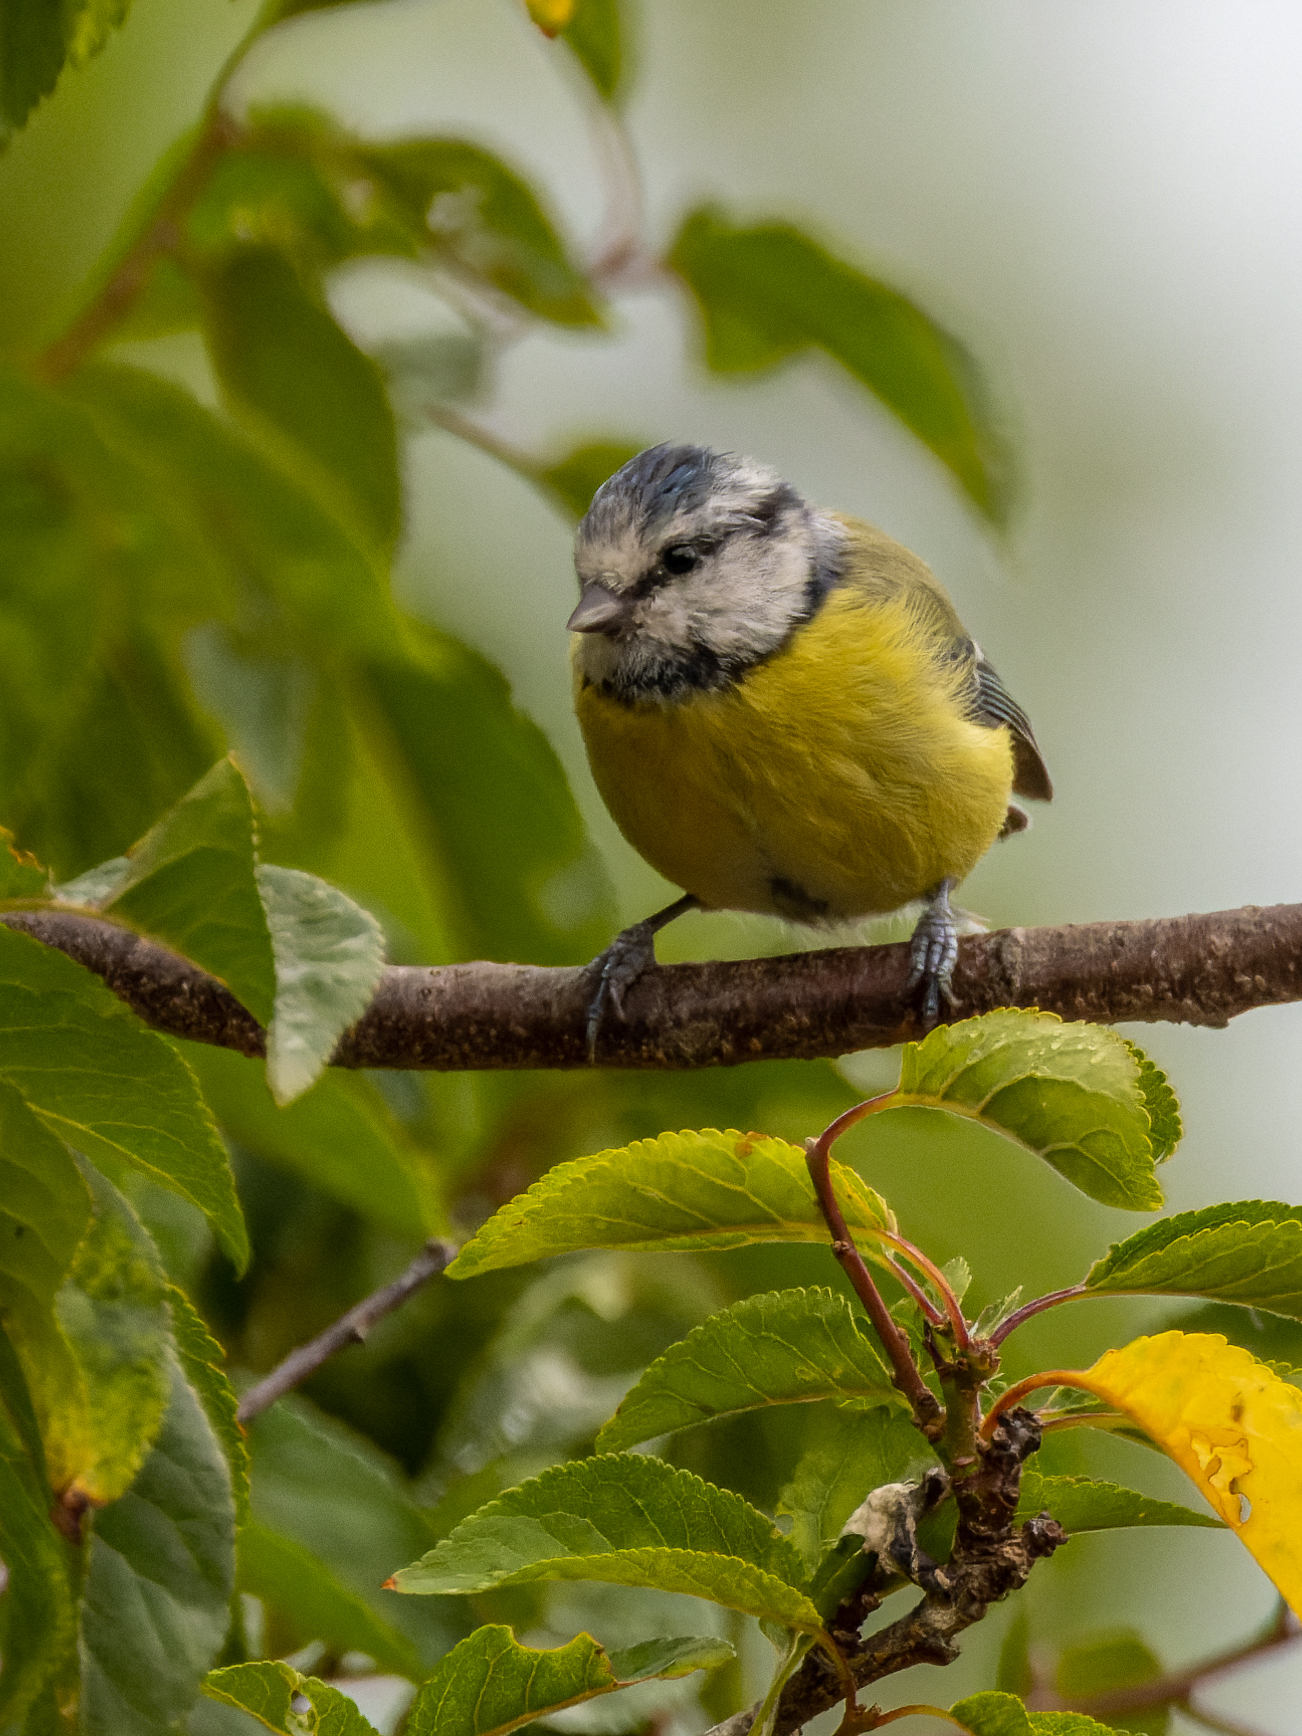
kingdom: Animalia
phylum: Chordata
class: Aves
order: Passeriformes
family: Paridae
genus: Cyanistes
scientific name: Cyanistes caeruleus
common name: Eurasian blue tit
